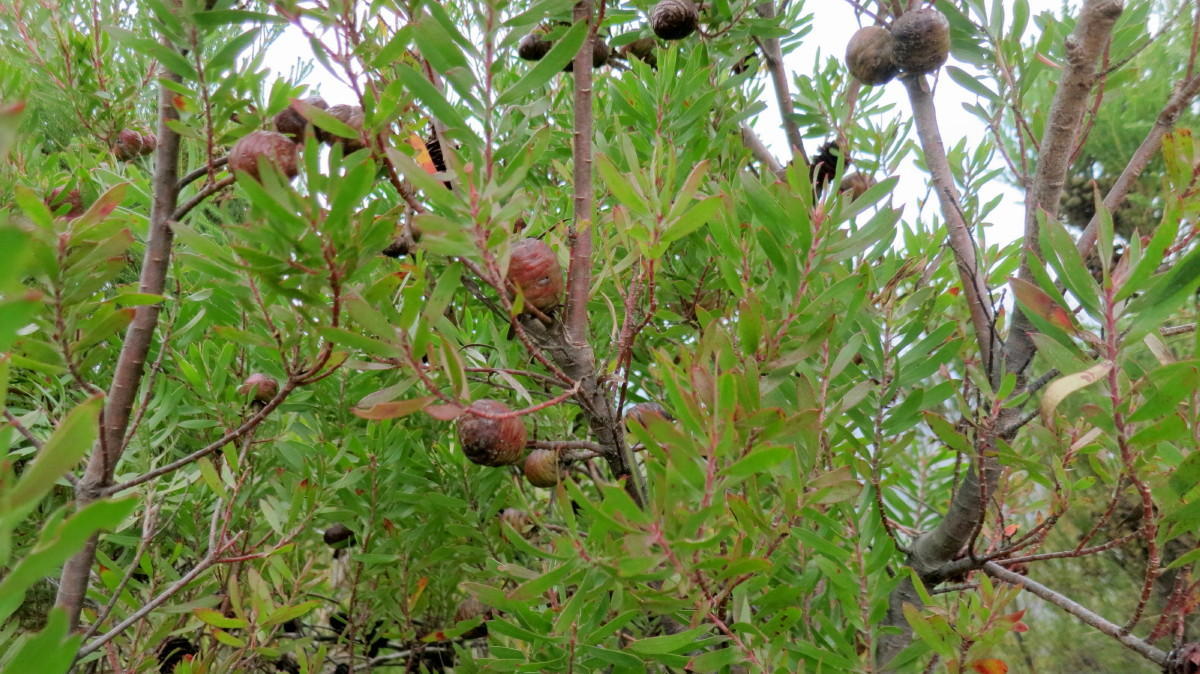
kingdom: Plantae
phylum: Tracheophyta
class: Magnoliopsida
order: Proteales
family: Proteaceae
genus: Leucadendron
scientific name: Leucadendron conicum
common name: Garden route conebush
